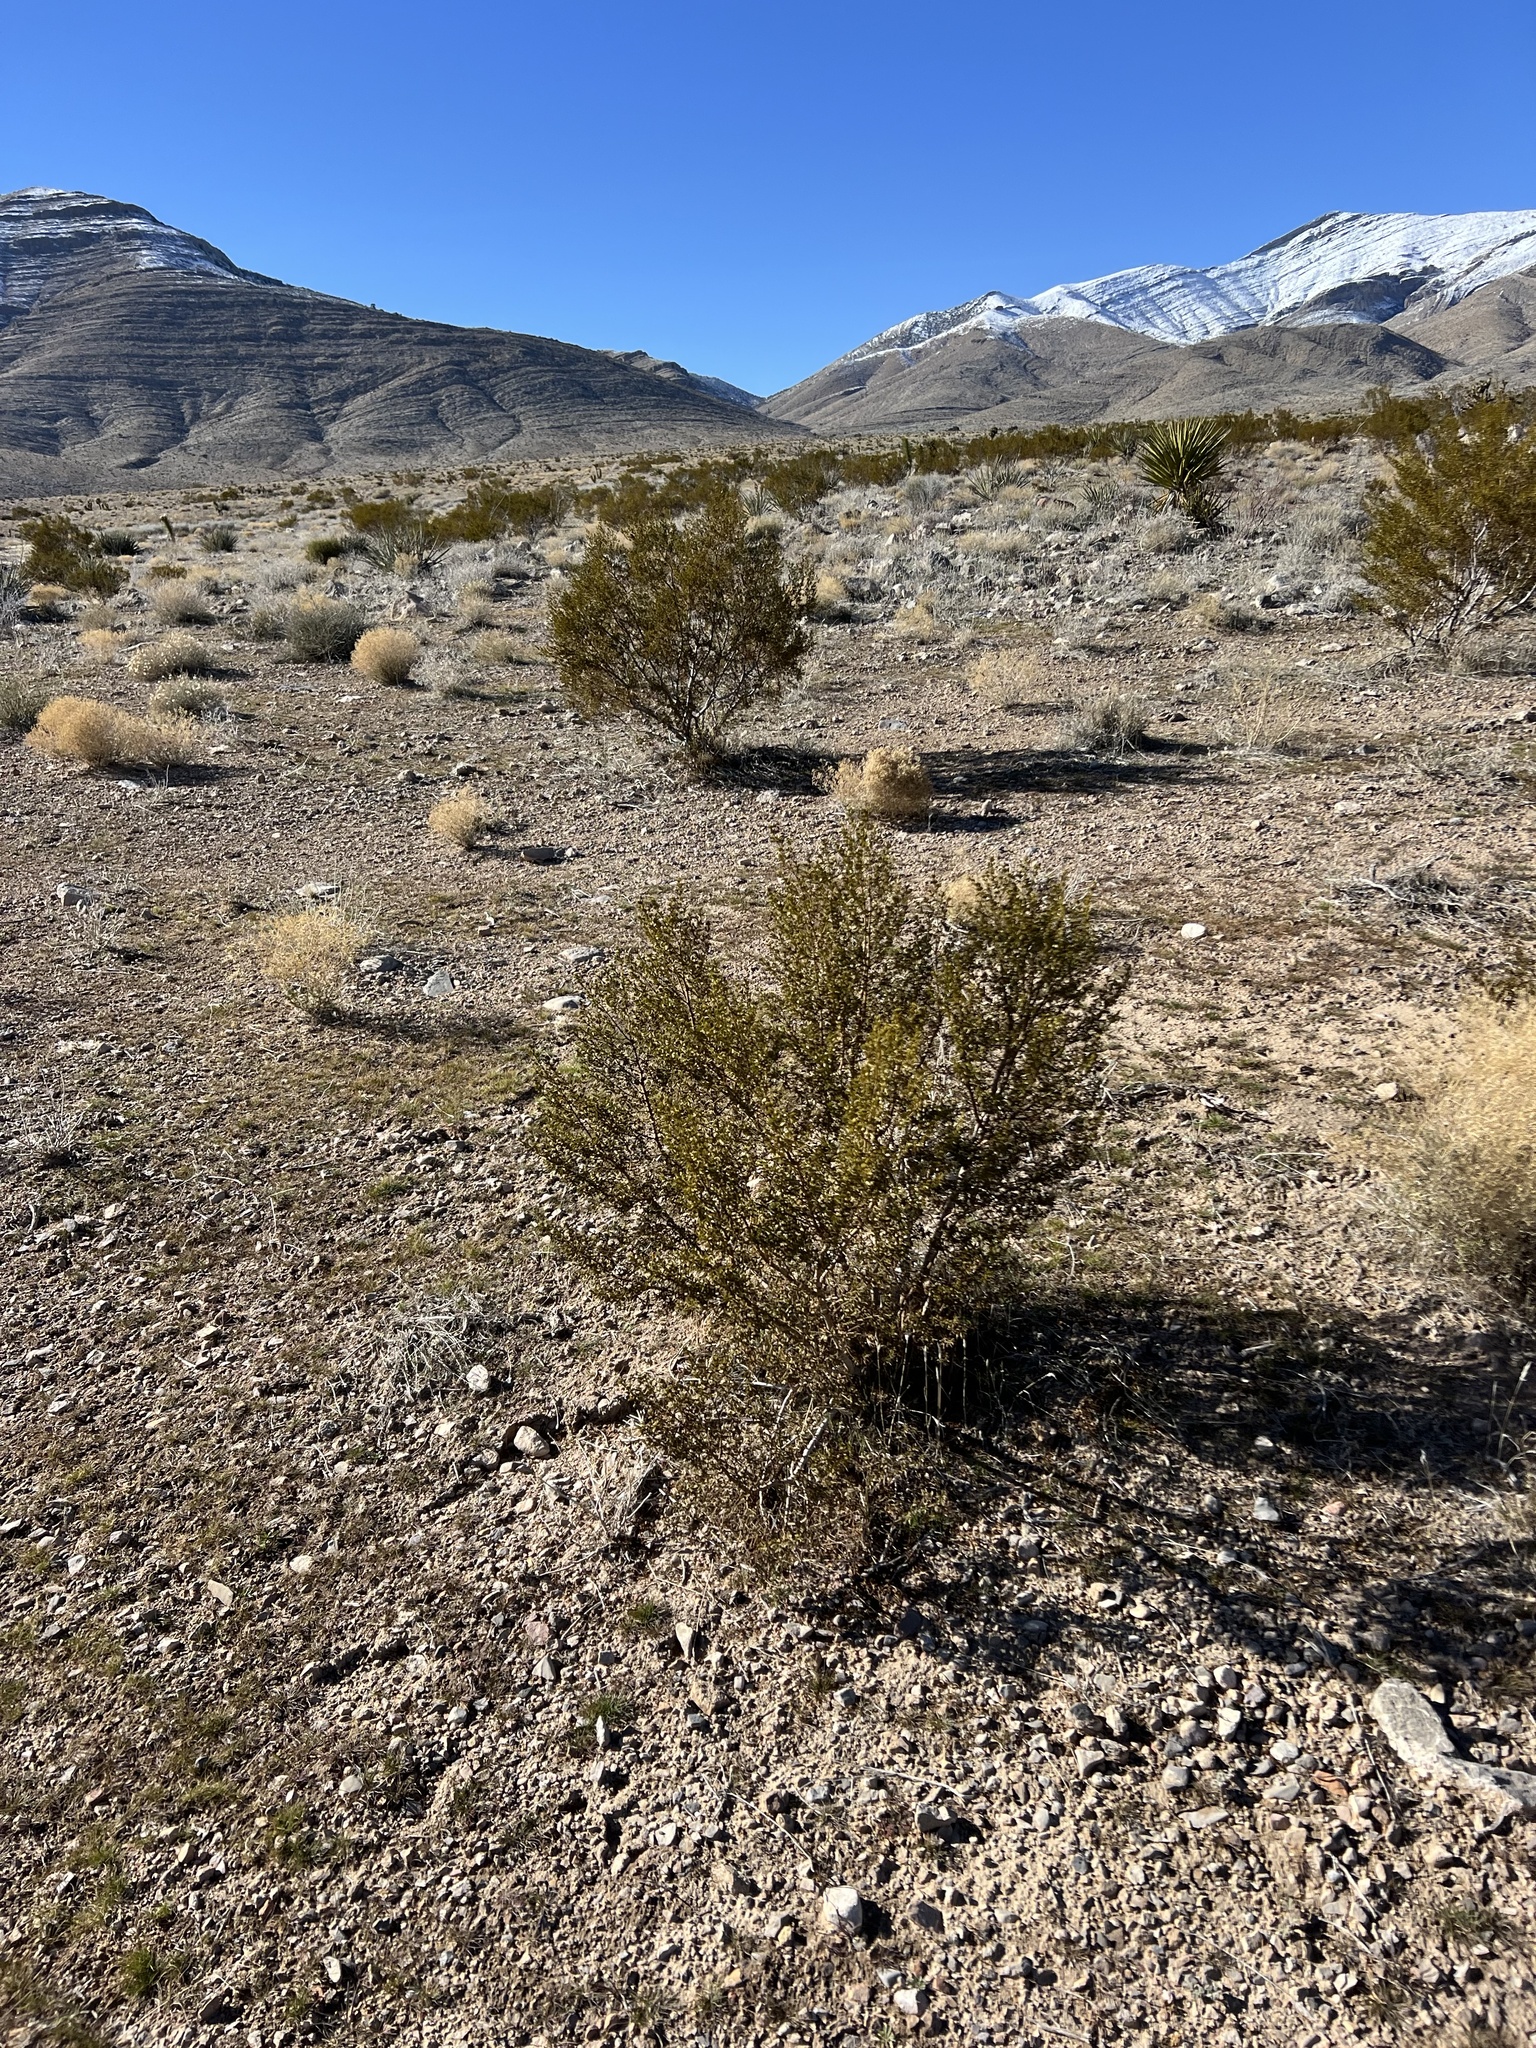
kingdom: Plantae
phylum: Tracheophyta
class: Magnoliopsida
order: Zygophyllales
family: Zygophyllaceae
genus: Larrea
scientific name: Larrea tridentata
